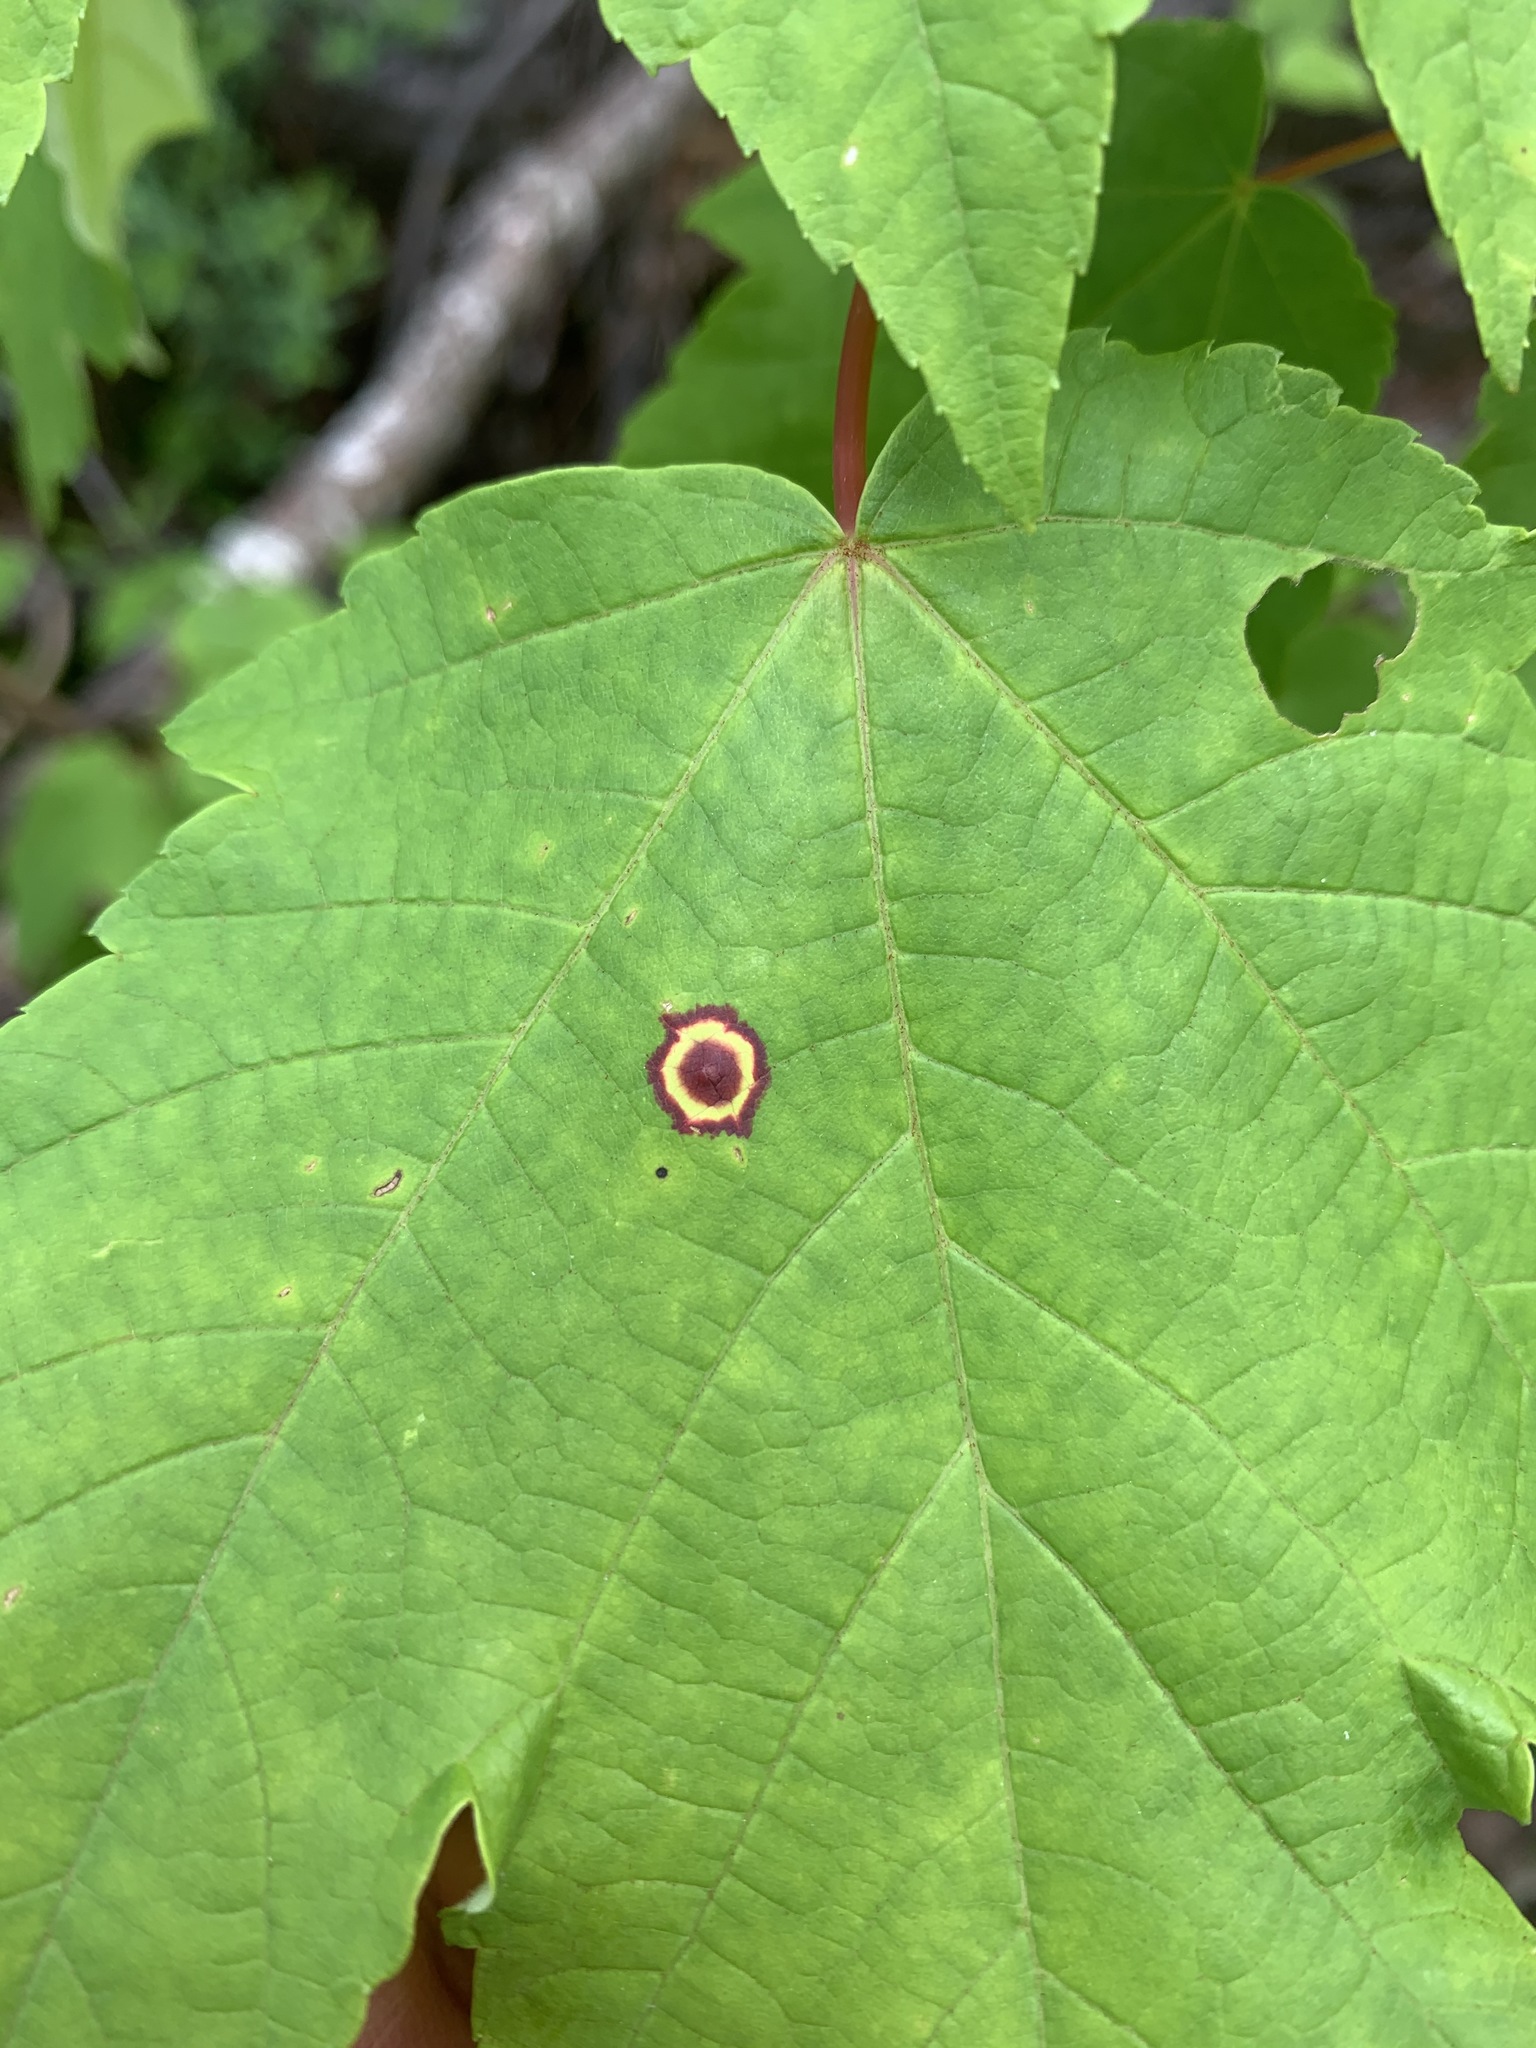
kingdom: Animalia
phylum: Arthropoda
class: Insecta
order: Diptera
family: Cecidomyiidae
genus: Acericecis
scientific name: Acericecis ocellaris
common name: Ocellate gall midge
